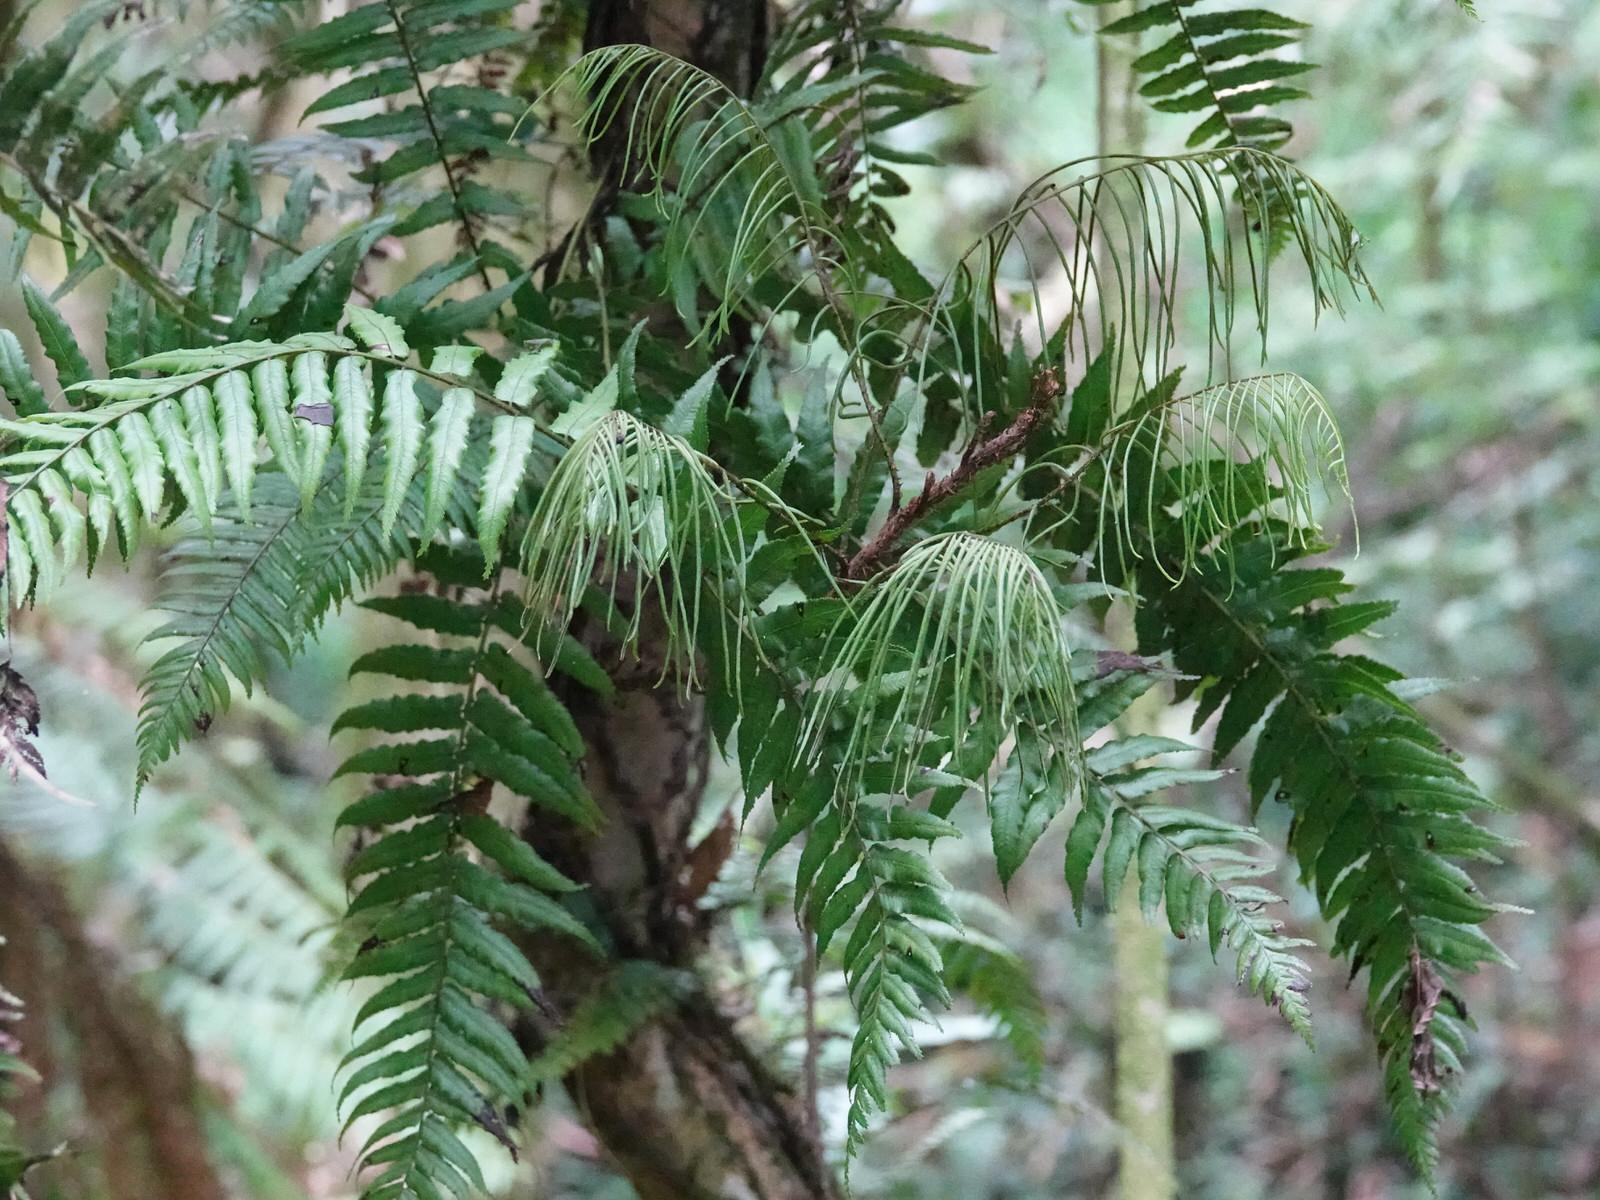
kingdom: Plantae
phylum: Tracheophyta
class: Polypodiopsida
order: Polypodiales
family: Blechnaceae
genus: Icarus
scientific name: Icarus filiformis
